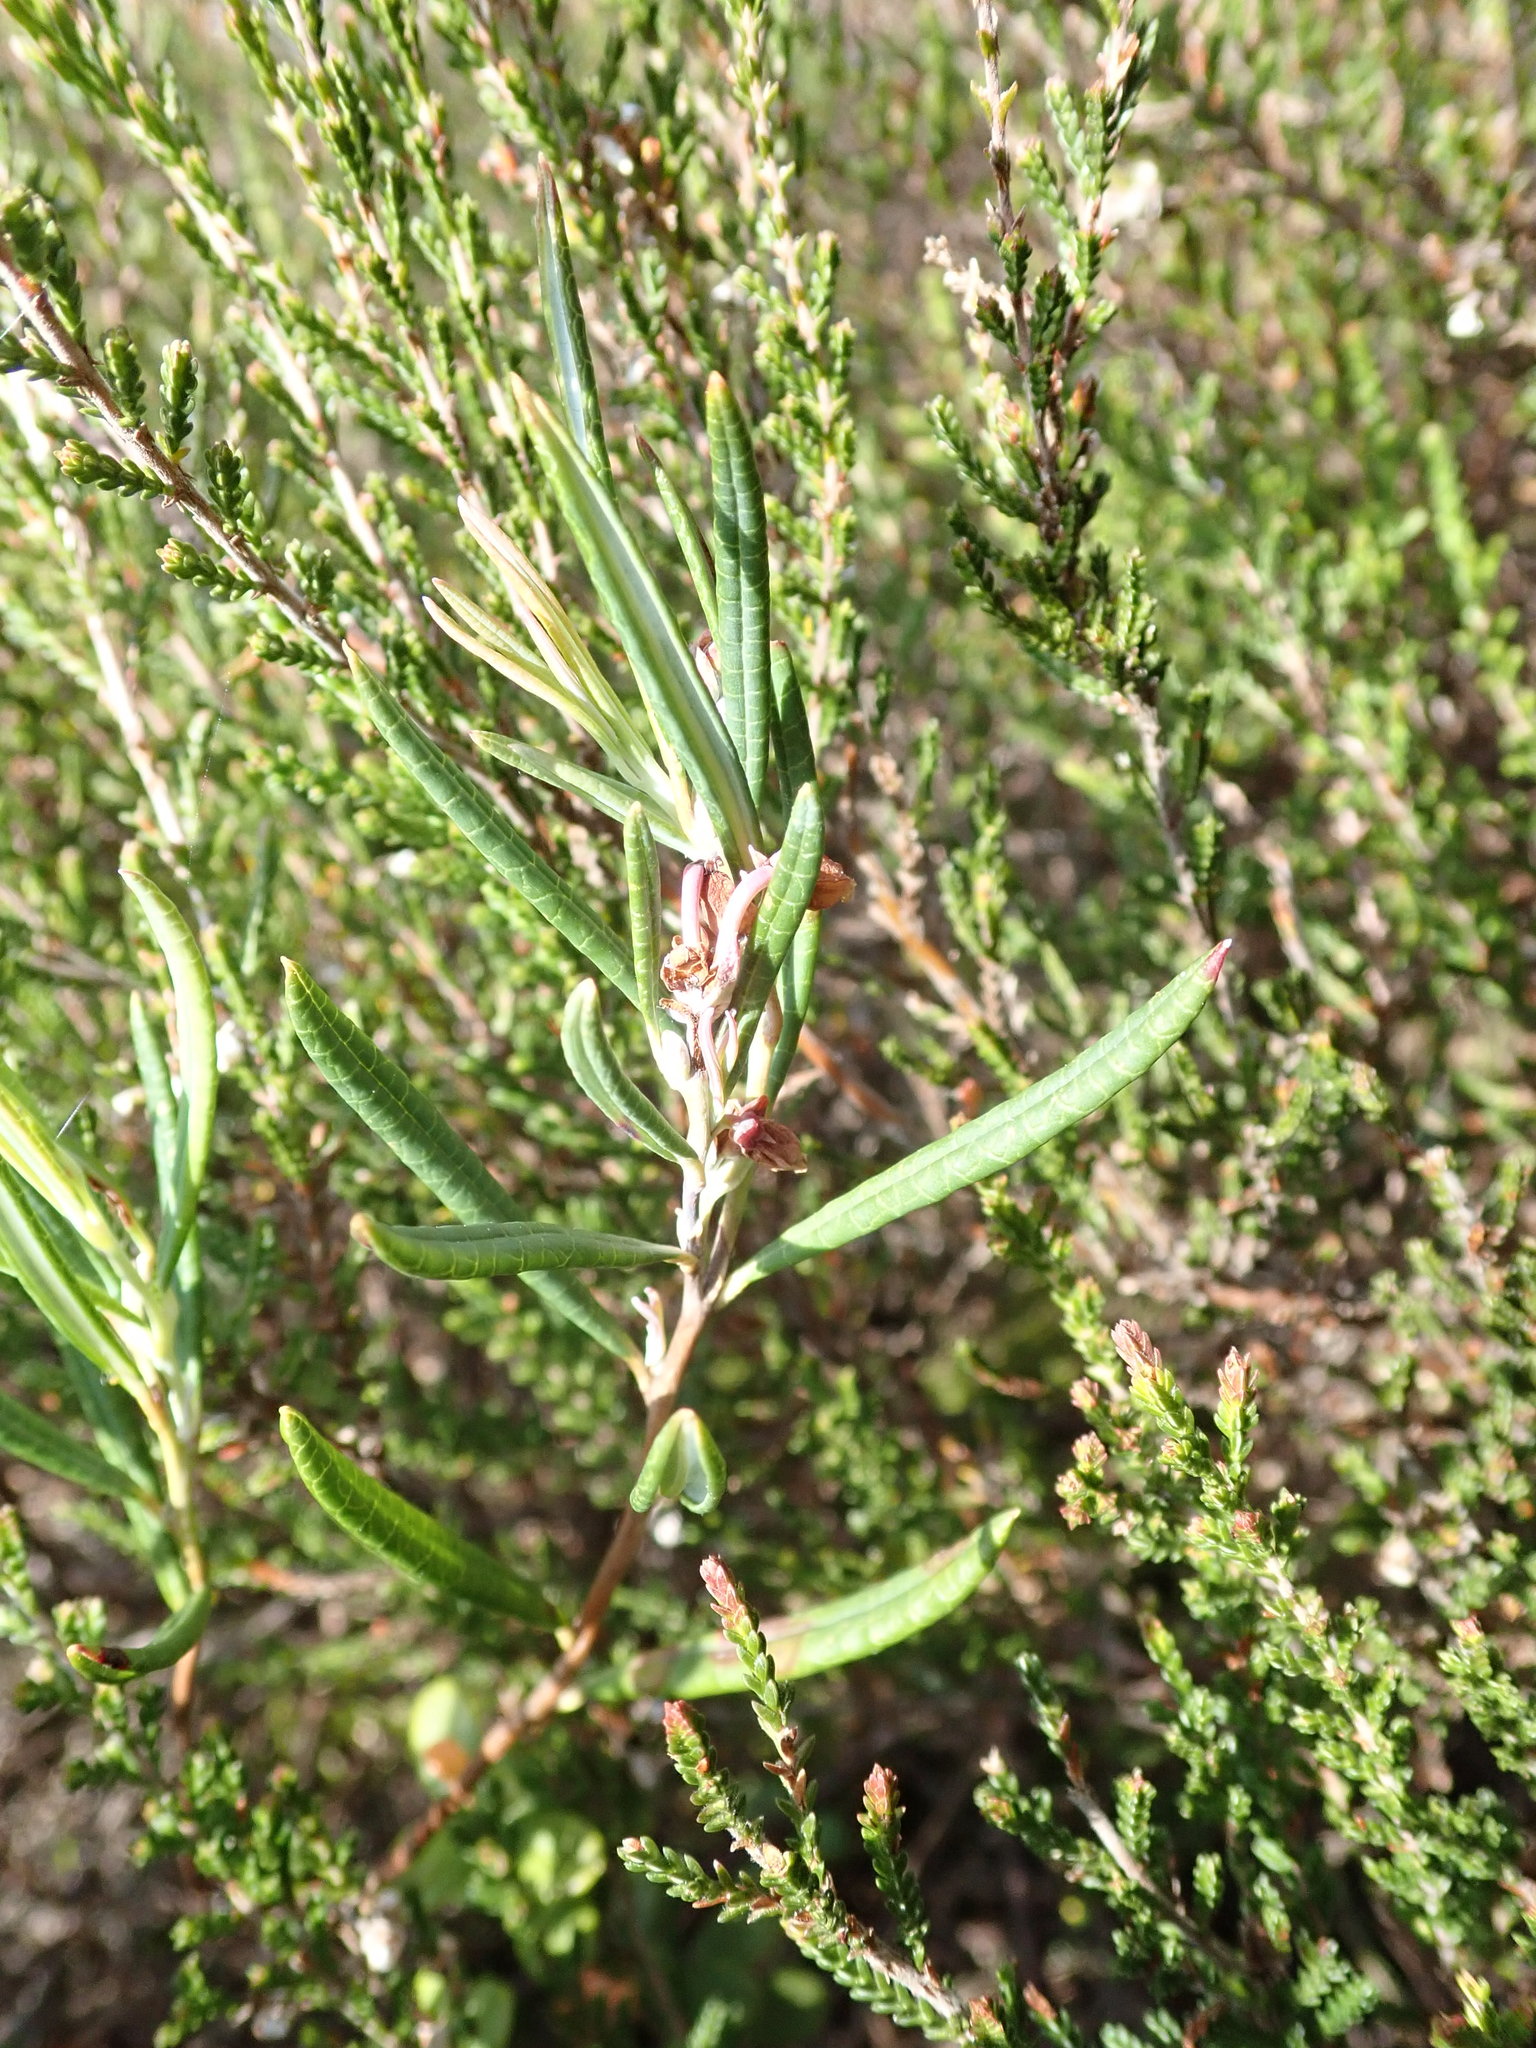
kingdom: Plantae
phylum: Tracheophyta
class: Magnoliopsida
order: Ericales
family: Ericaceae
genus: Andromeda
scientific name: Andromeda polifolia
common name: Bog-rosemary
